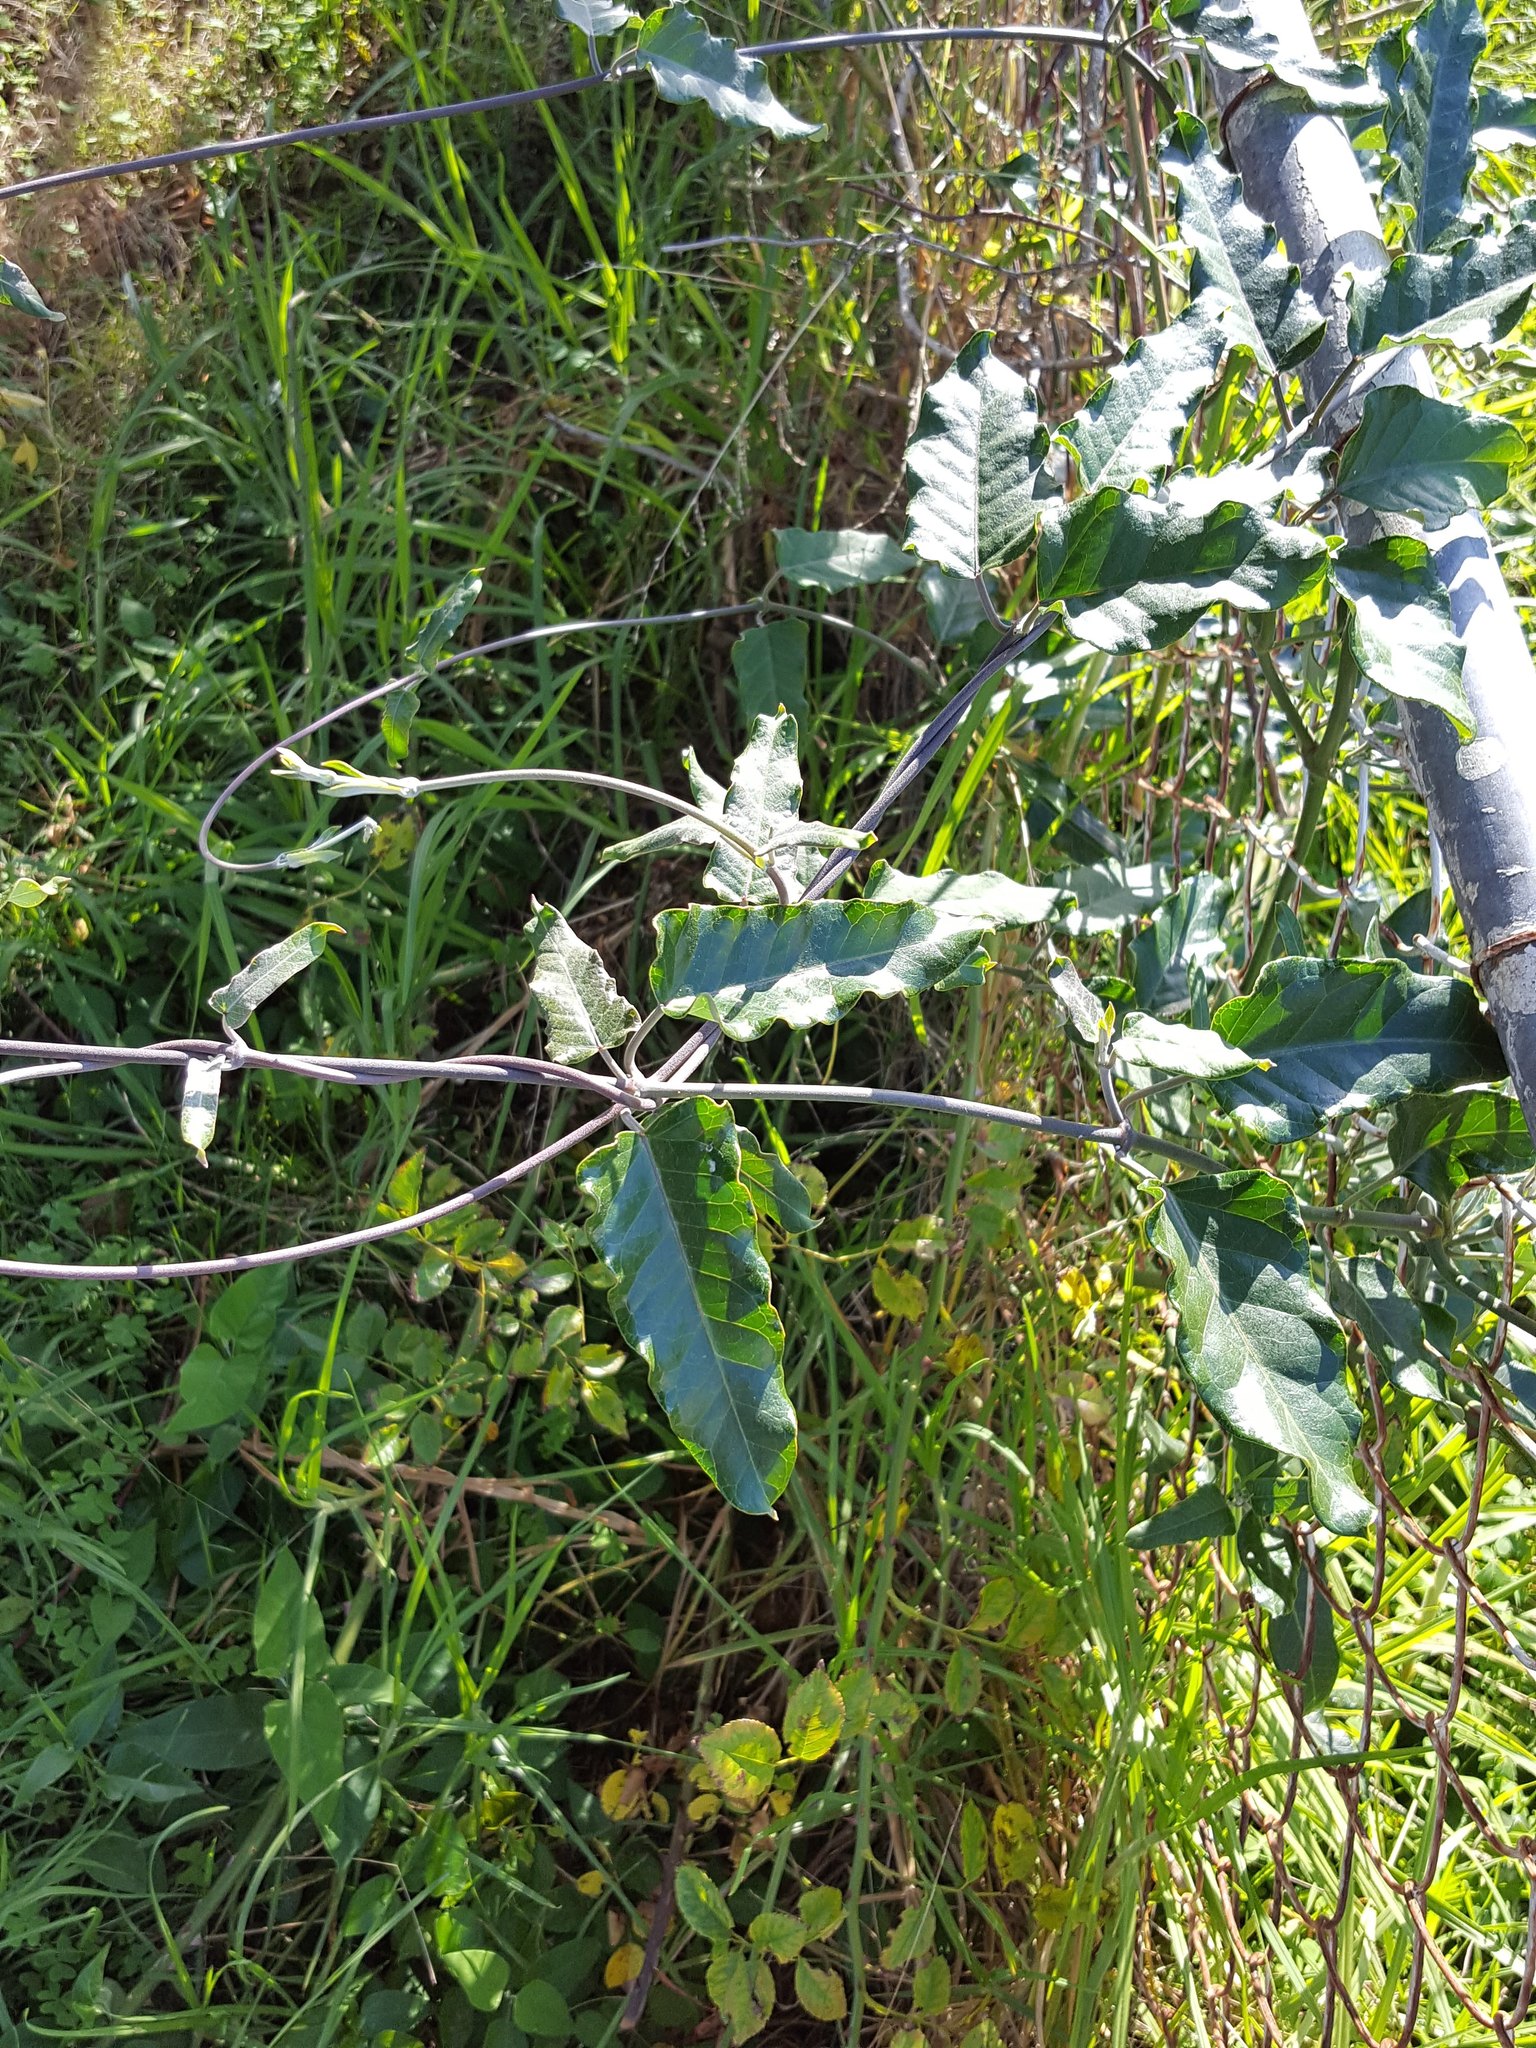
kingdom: Plantae
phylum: Tracheophyta
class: Magnoliopsida
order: Gentianales
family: Apocynaceae
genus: Araujia
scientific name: Araujia sericifera
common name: White bladderflower
